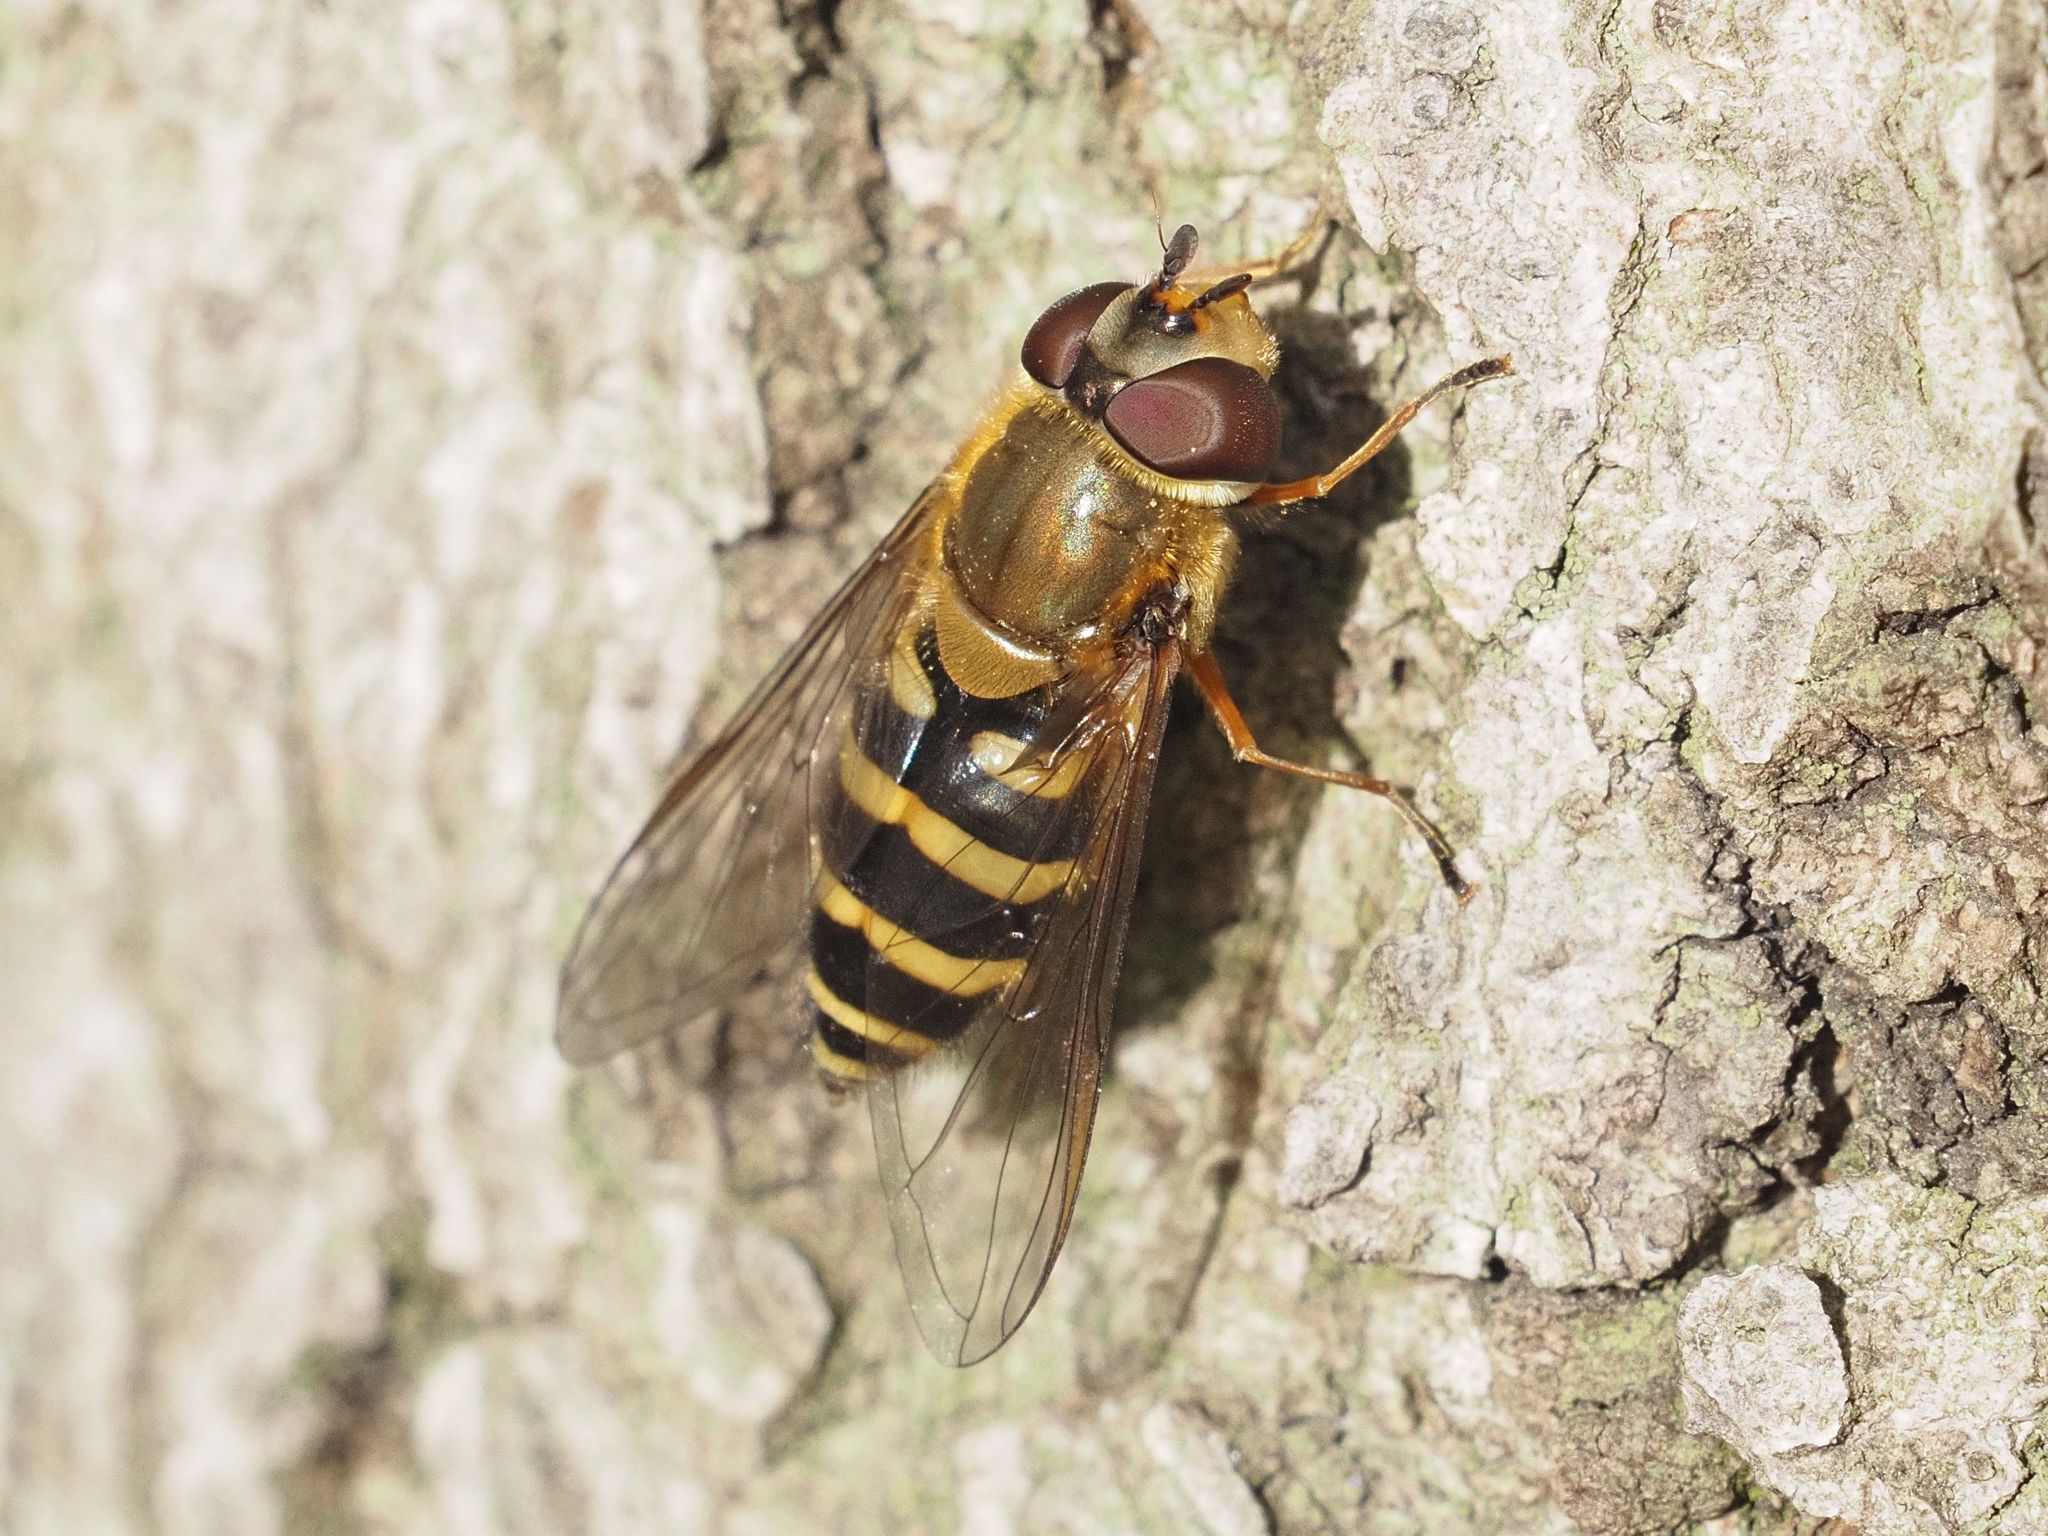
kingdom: Animalia
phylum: Arthropoda
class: Insecta
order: Diptera
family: Syrphidae
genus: Syrphus
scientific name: Syrphus torvus
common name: Hairy-eyed flower fly
